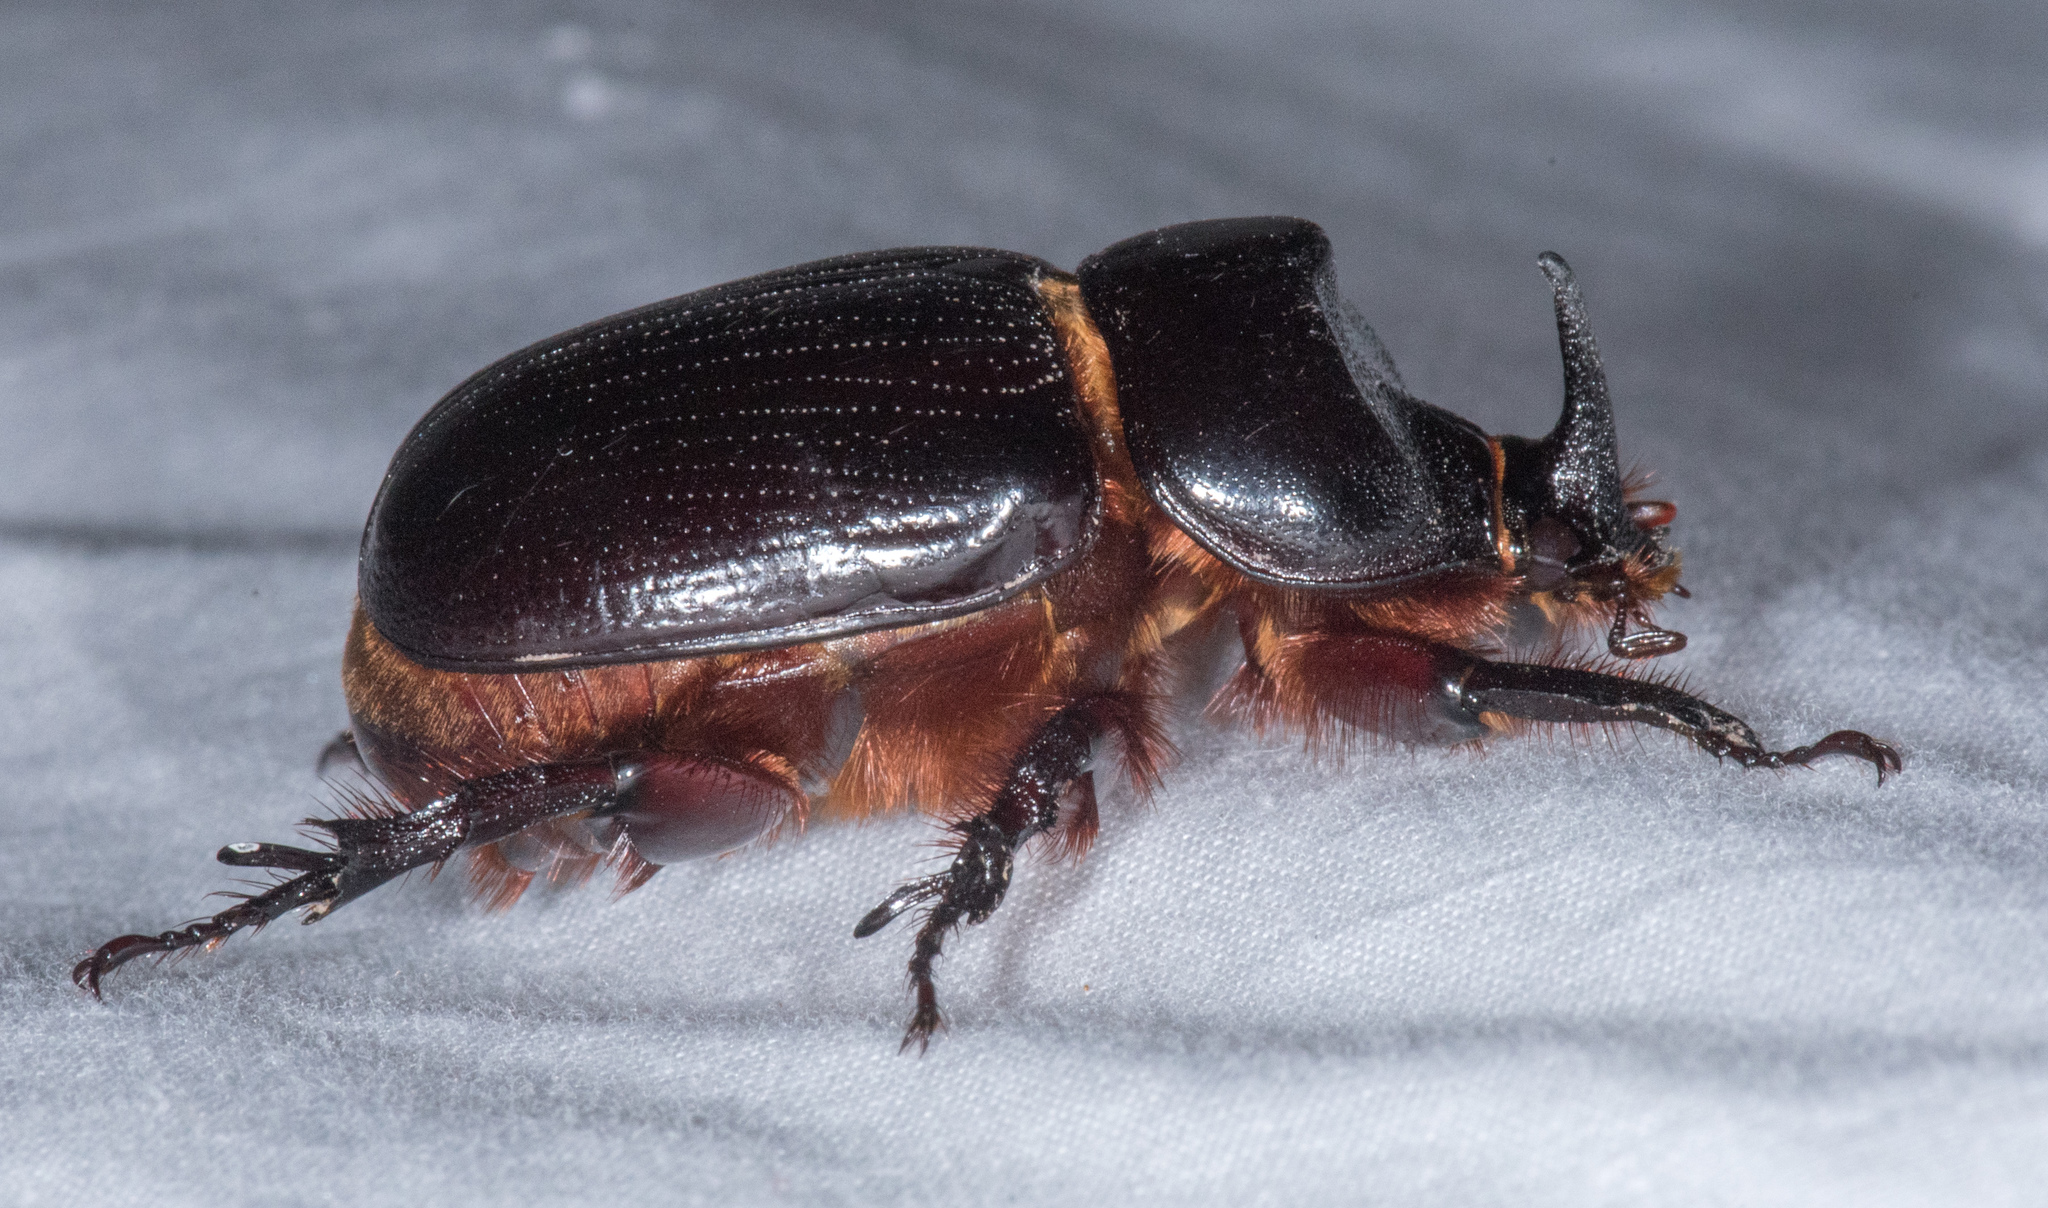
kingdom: Animalia
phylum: Arthropoda
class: Insecta
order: Coleoptera
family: Scarabaeidae
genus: Xyloryctes
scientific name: Xyloryctes thestalus
